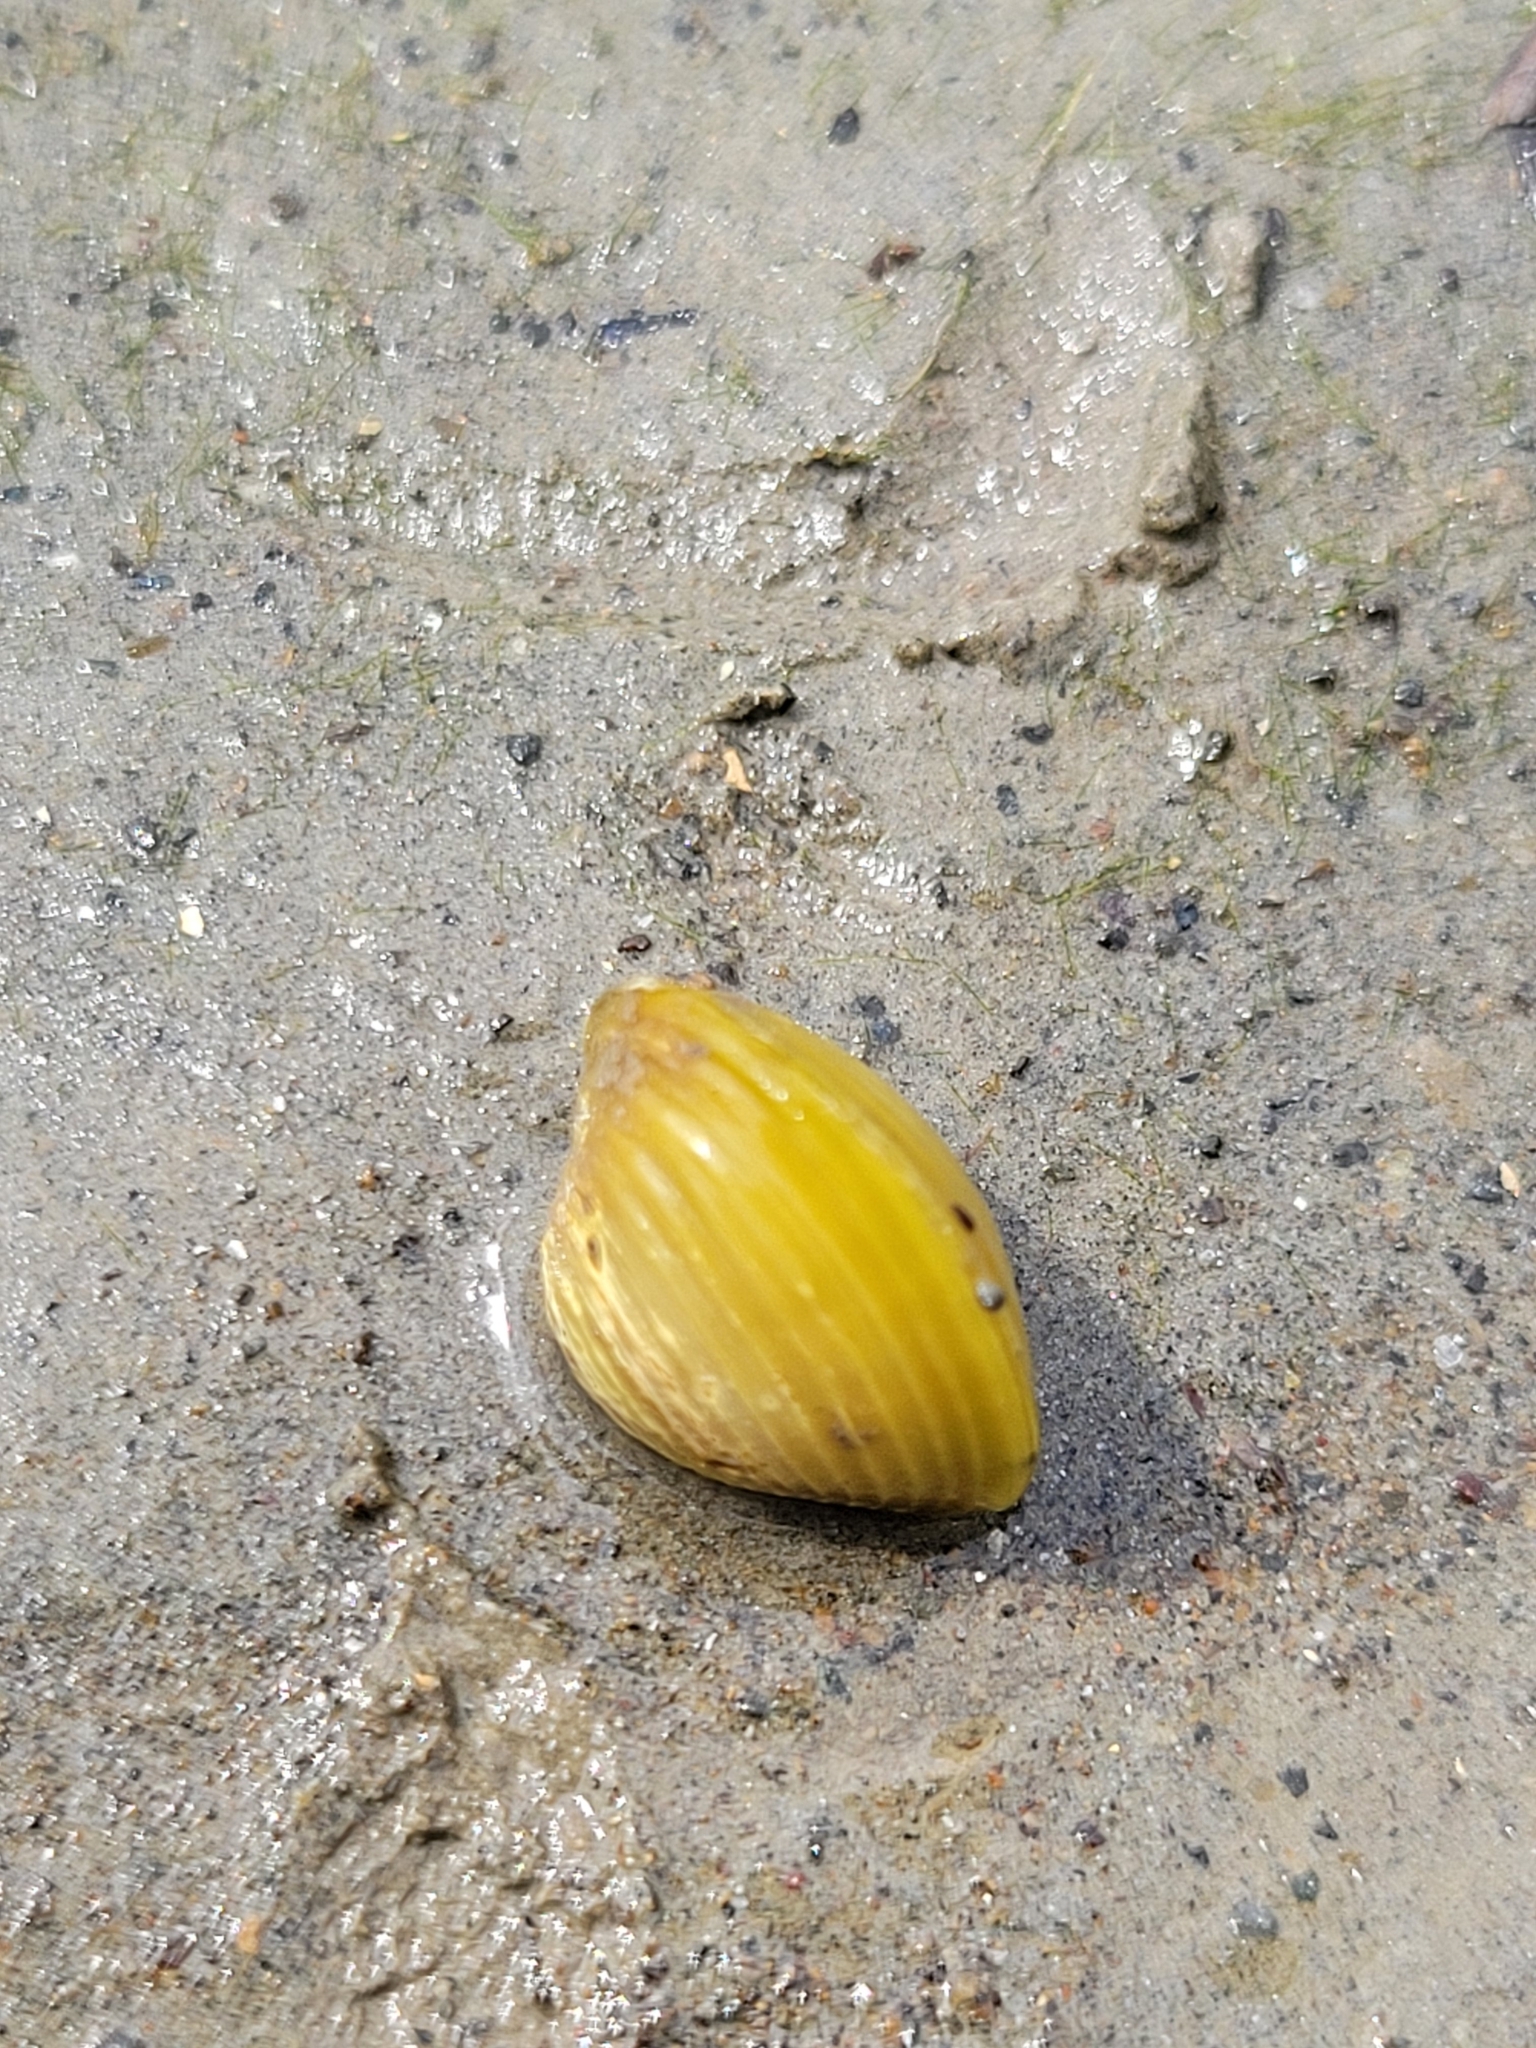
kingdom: Animalia
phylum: Mollusca
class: Bivalvia
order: Venerida
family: Cyrenidae
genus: Corbicula
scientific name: Corbicula fluminea
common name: Asian clam
